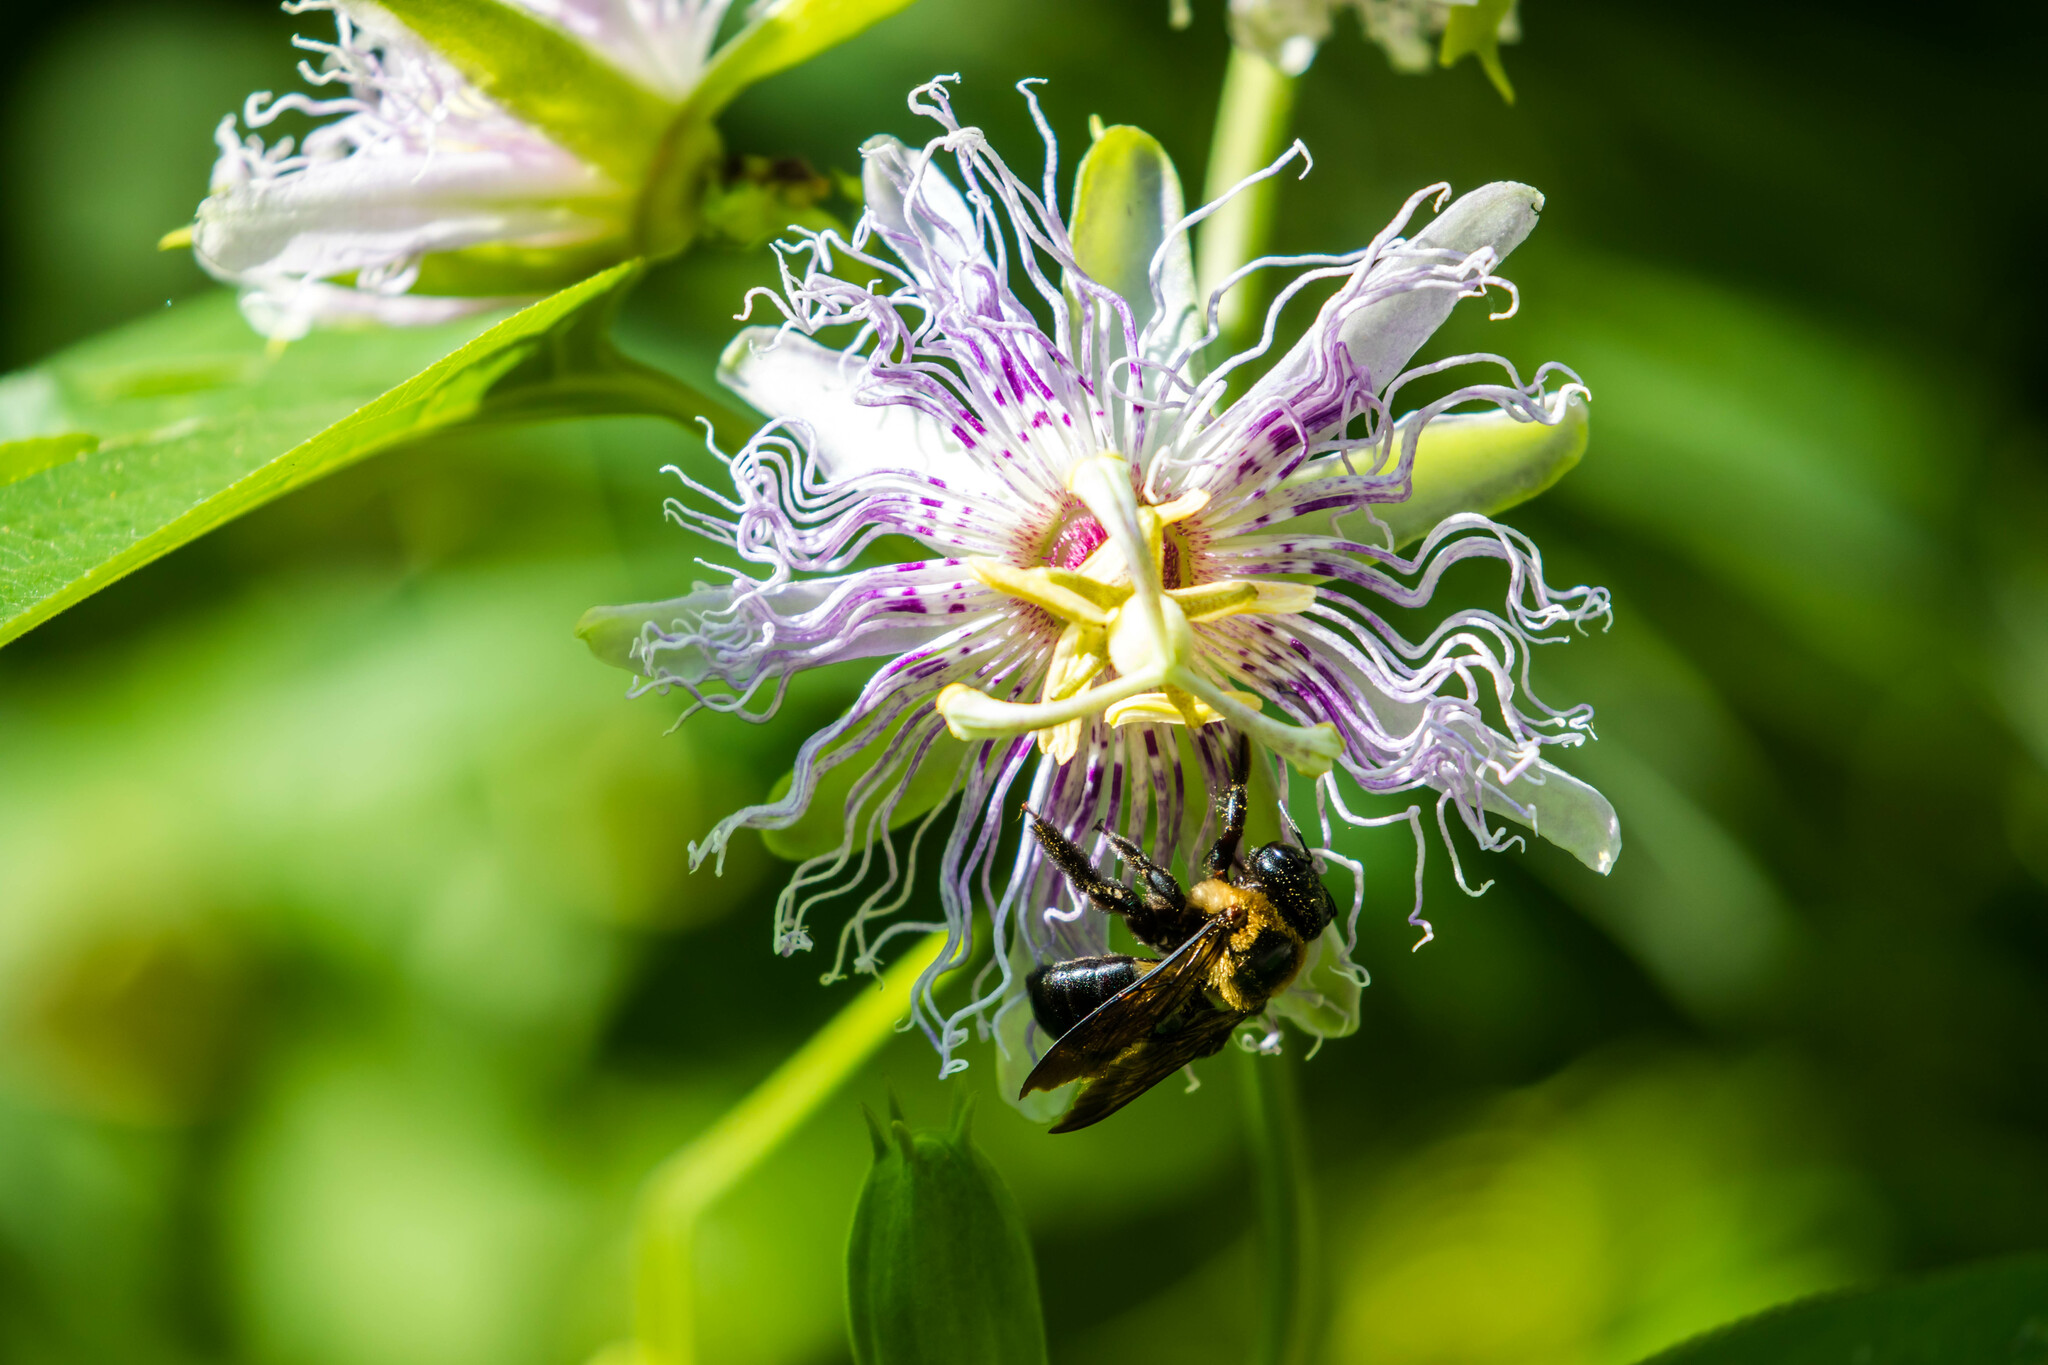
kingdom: Animalia
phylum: Arthropoda
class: Insecta
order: Hymenoptera
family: Apidae
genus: Xylocopa
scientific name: Xylocopa virginica
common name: Carpenter bee
